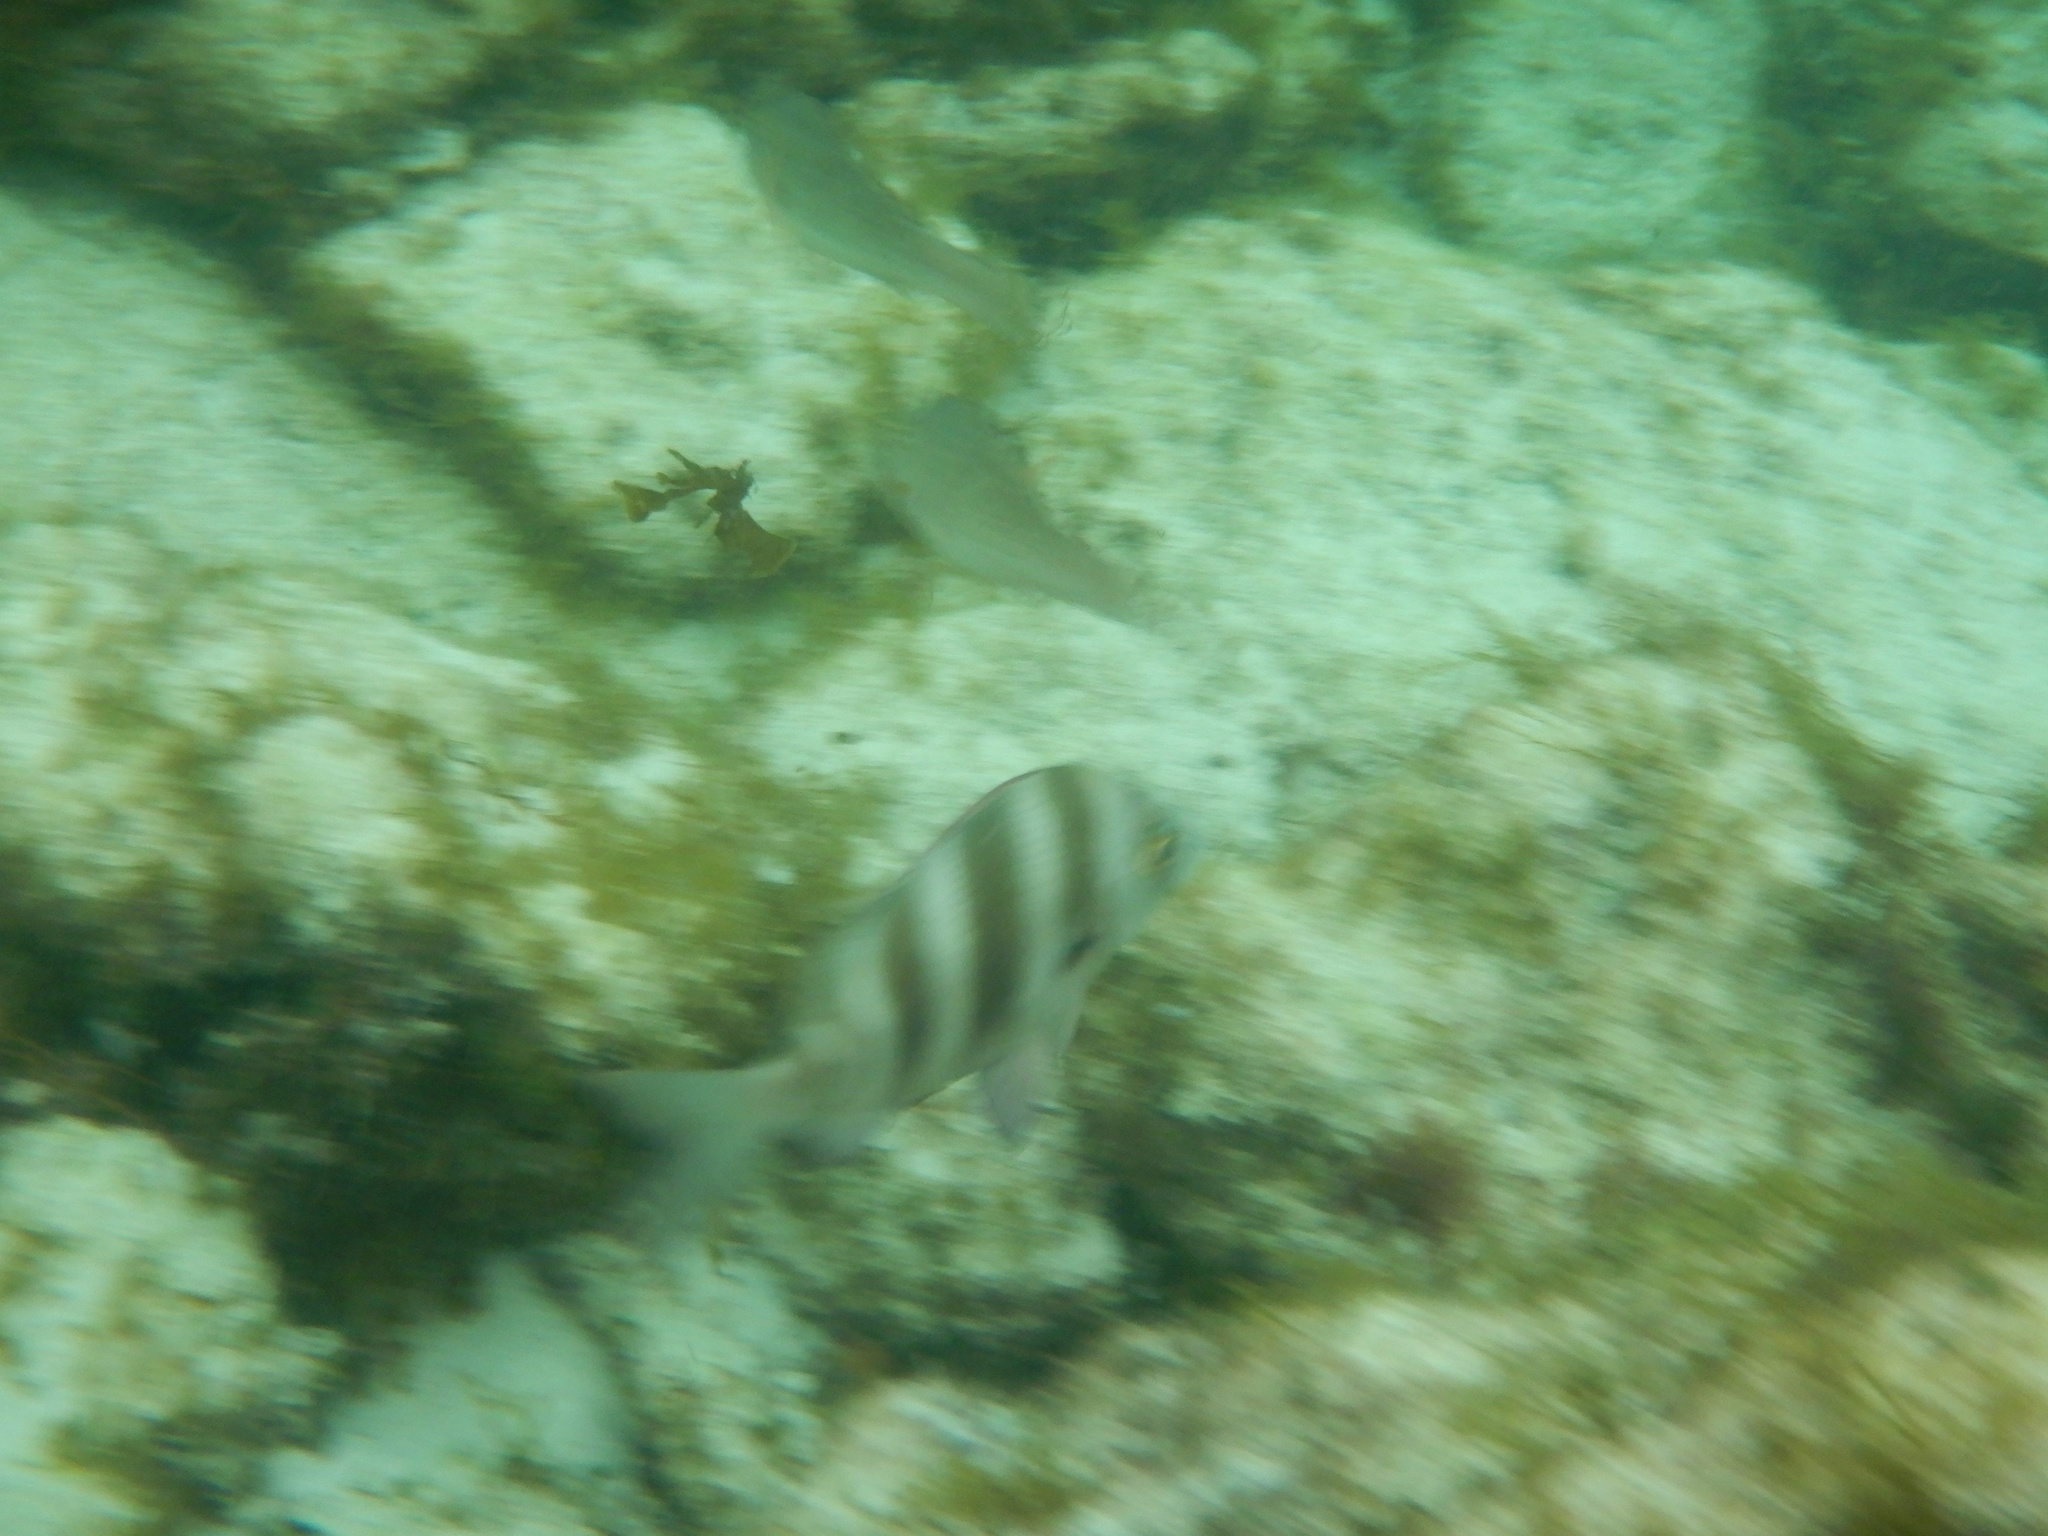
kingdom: Animalia
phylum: Chordata
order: Perciformes
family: Sparidae
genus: Diplodus
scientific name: Diplodus cervinus
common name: Oman porgy
